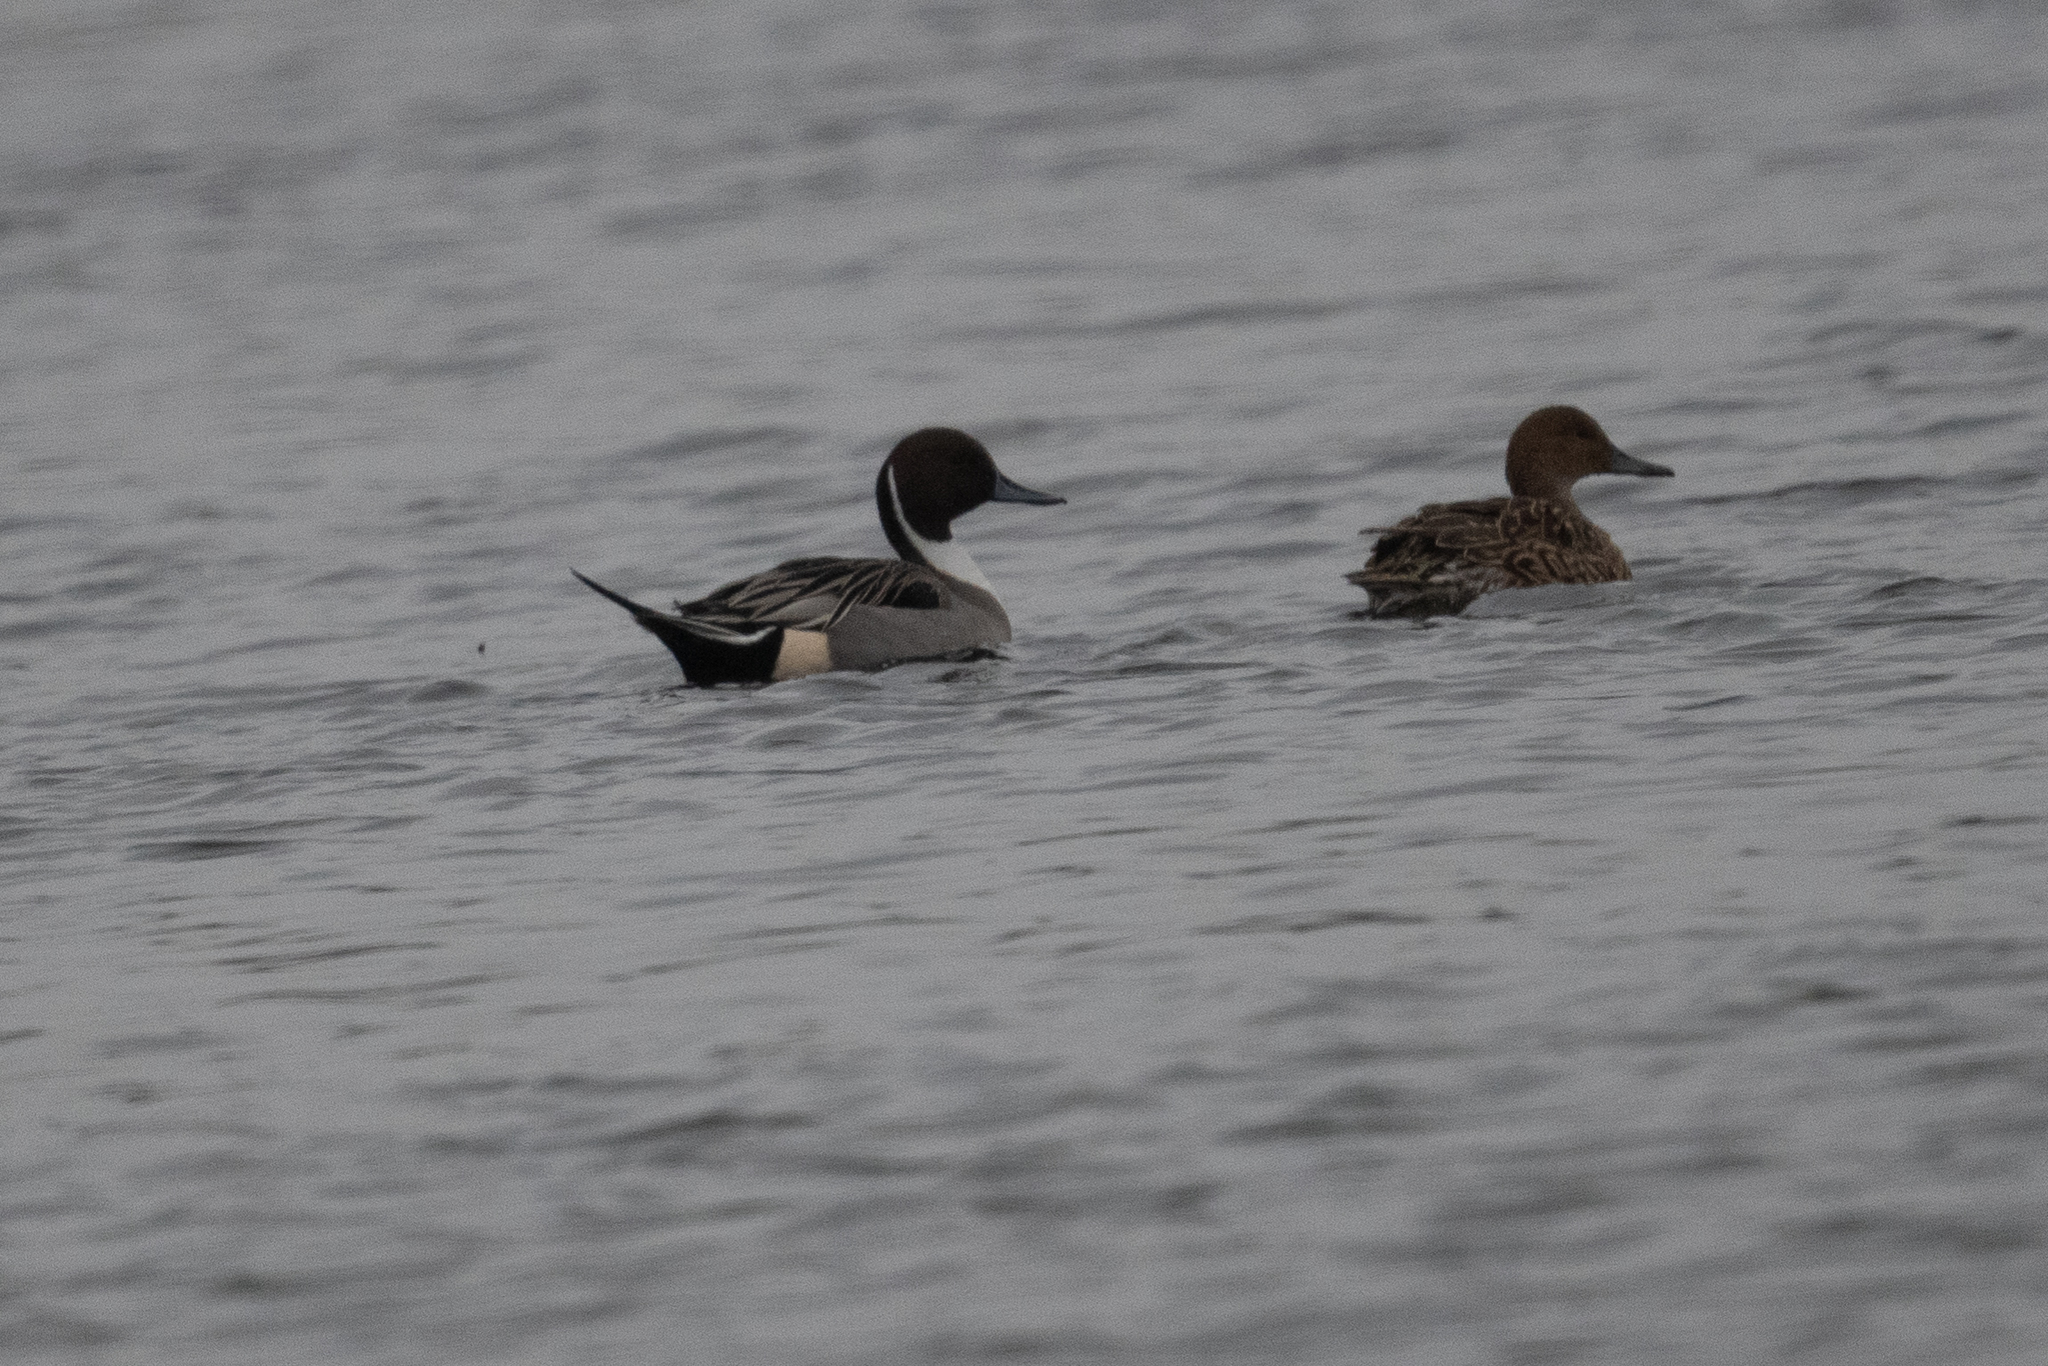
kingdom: Animalia
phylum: Chordata
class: Aves
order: Anseriformes
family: Anatidae
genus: Anas
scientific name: Anas acuta
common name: Northern pintail
